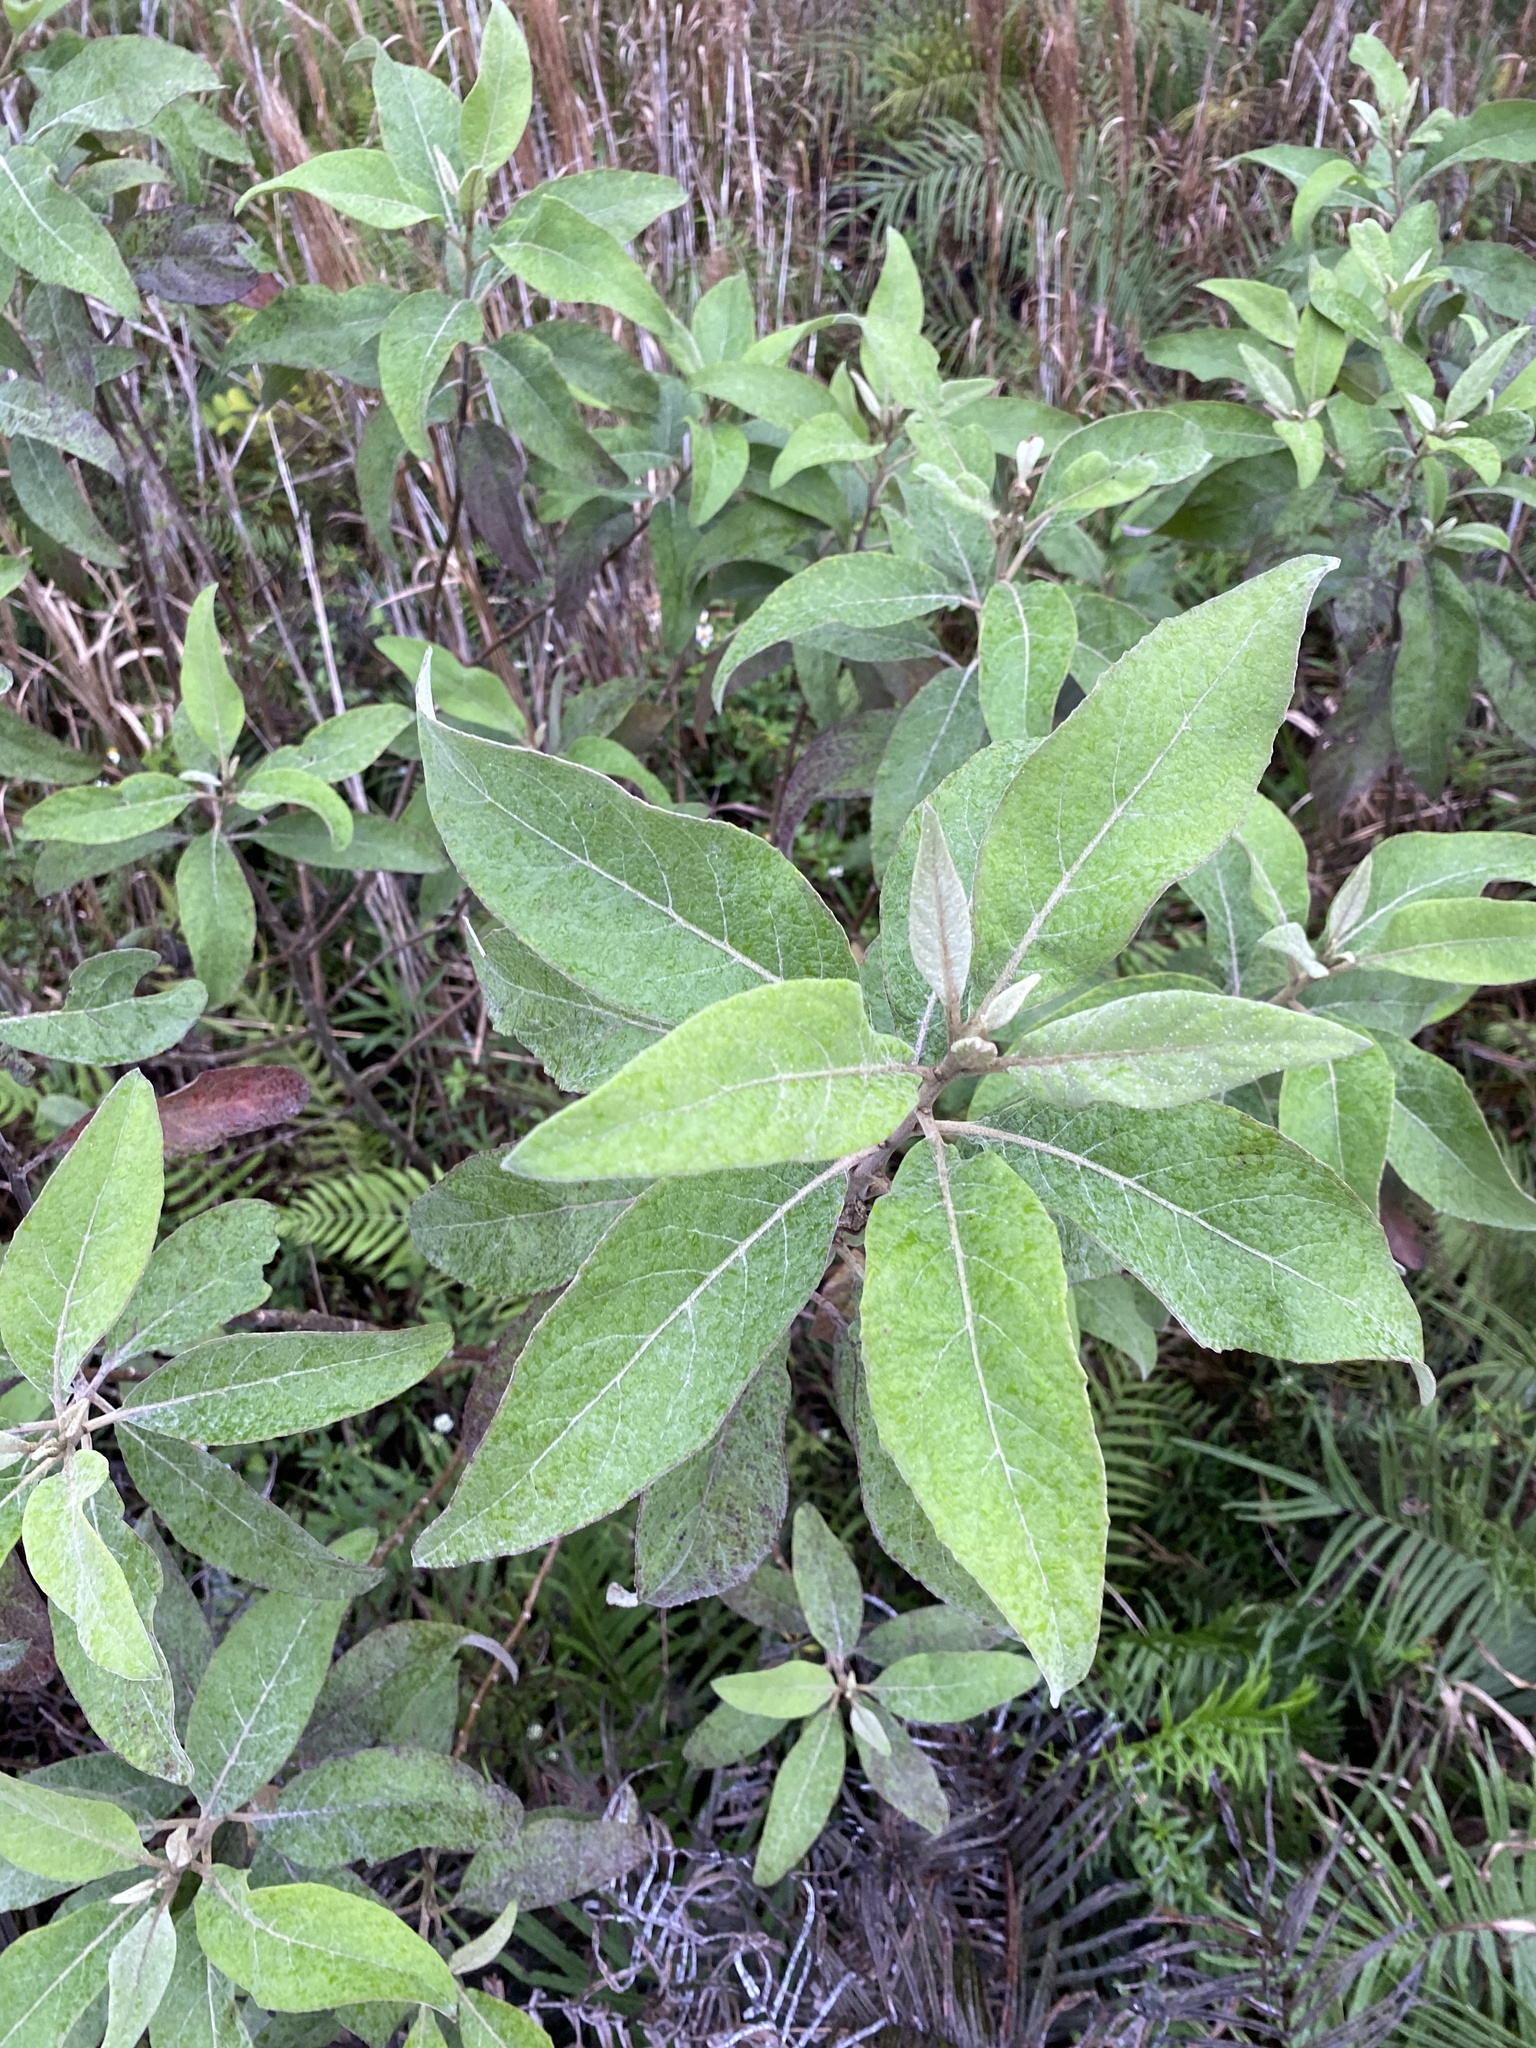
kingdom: Plantae
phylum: Tracheophyta
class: Magnoliopsida
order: Asterales
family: Asteraceae
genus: Pluchea
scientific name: Pluchea carolinensis
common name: Marsh fleabane
